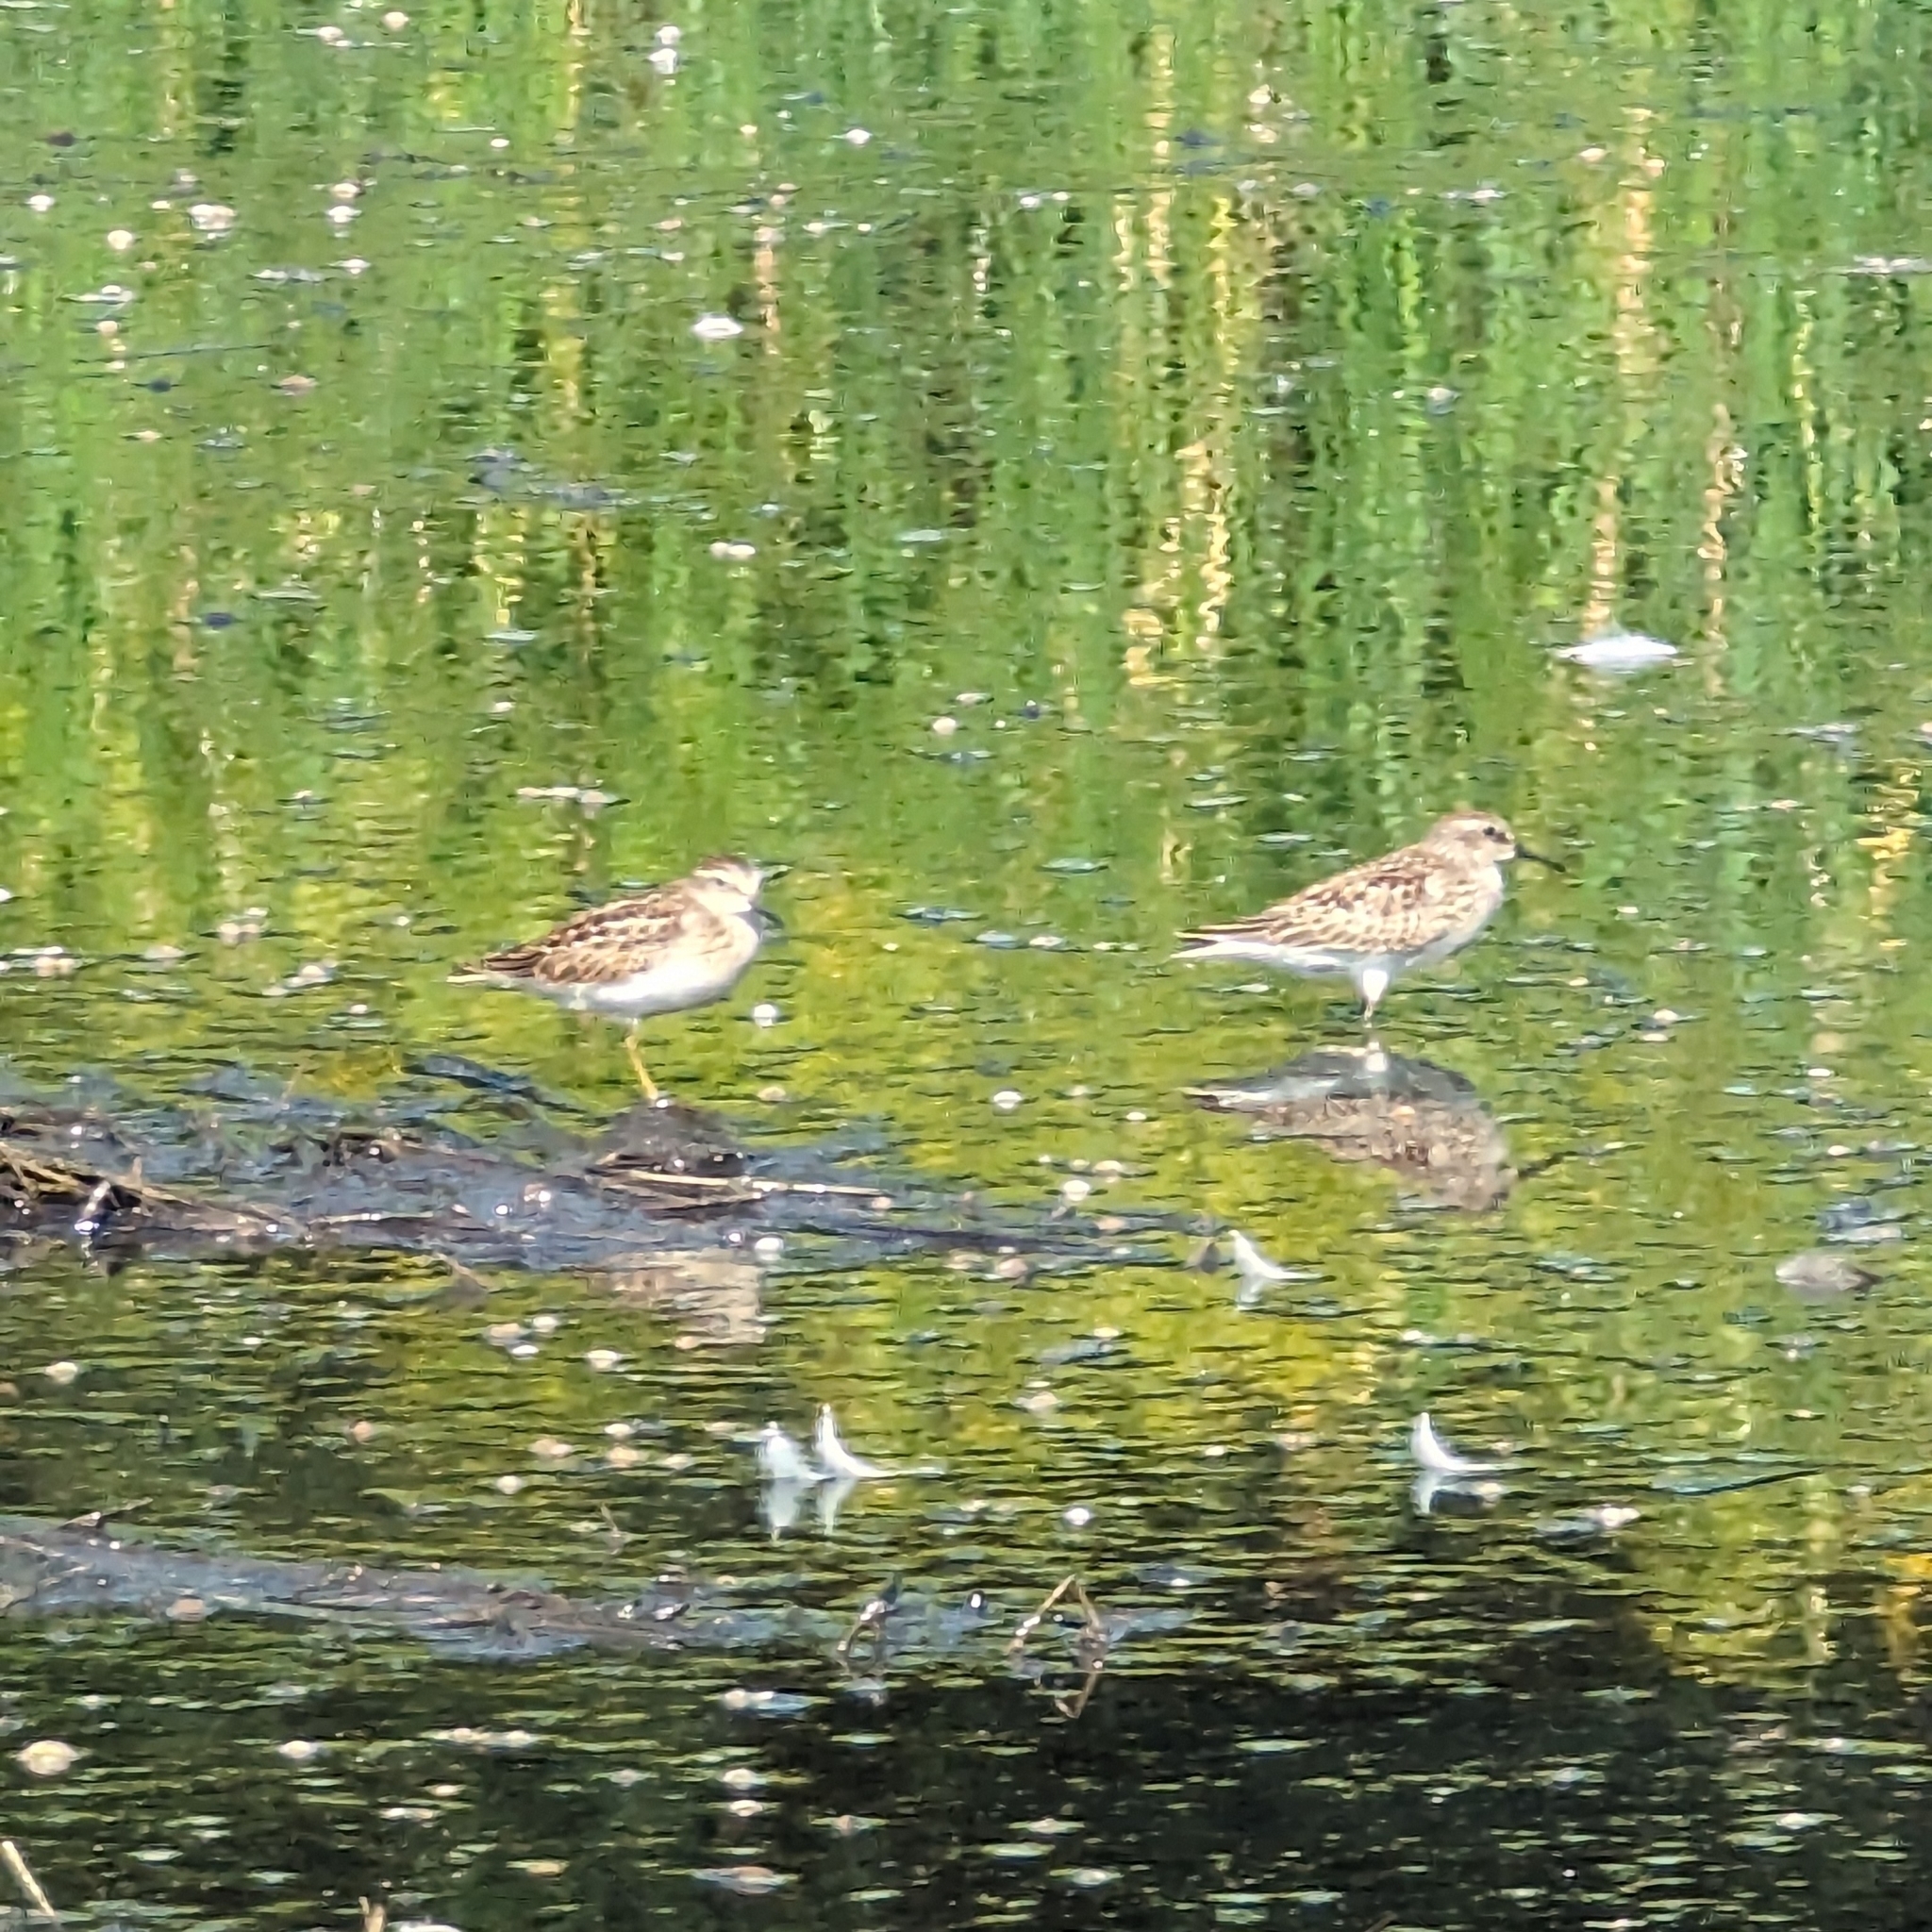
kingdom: Animalia
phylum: Chordata
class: Aves
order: Charadriiformes
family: Scolopacidae
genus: Calidris
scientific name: Calidris minutilla
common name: Least sandpiper
